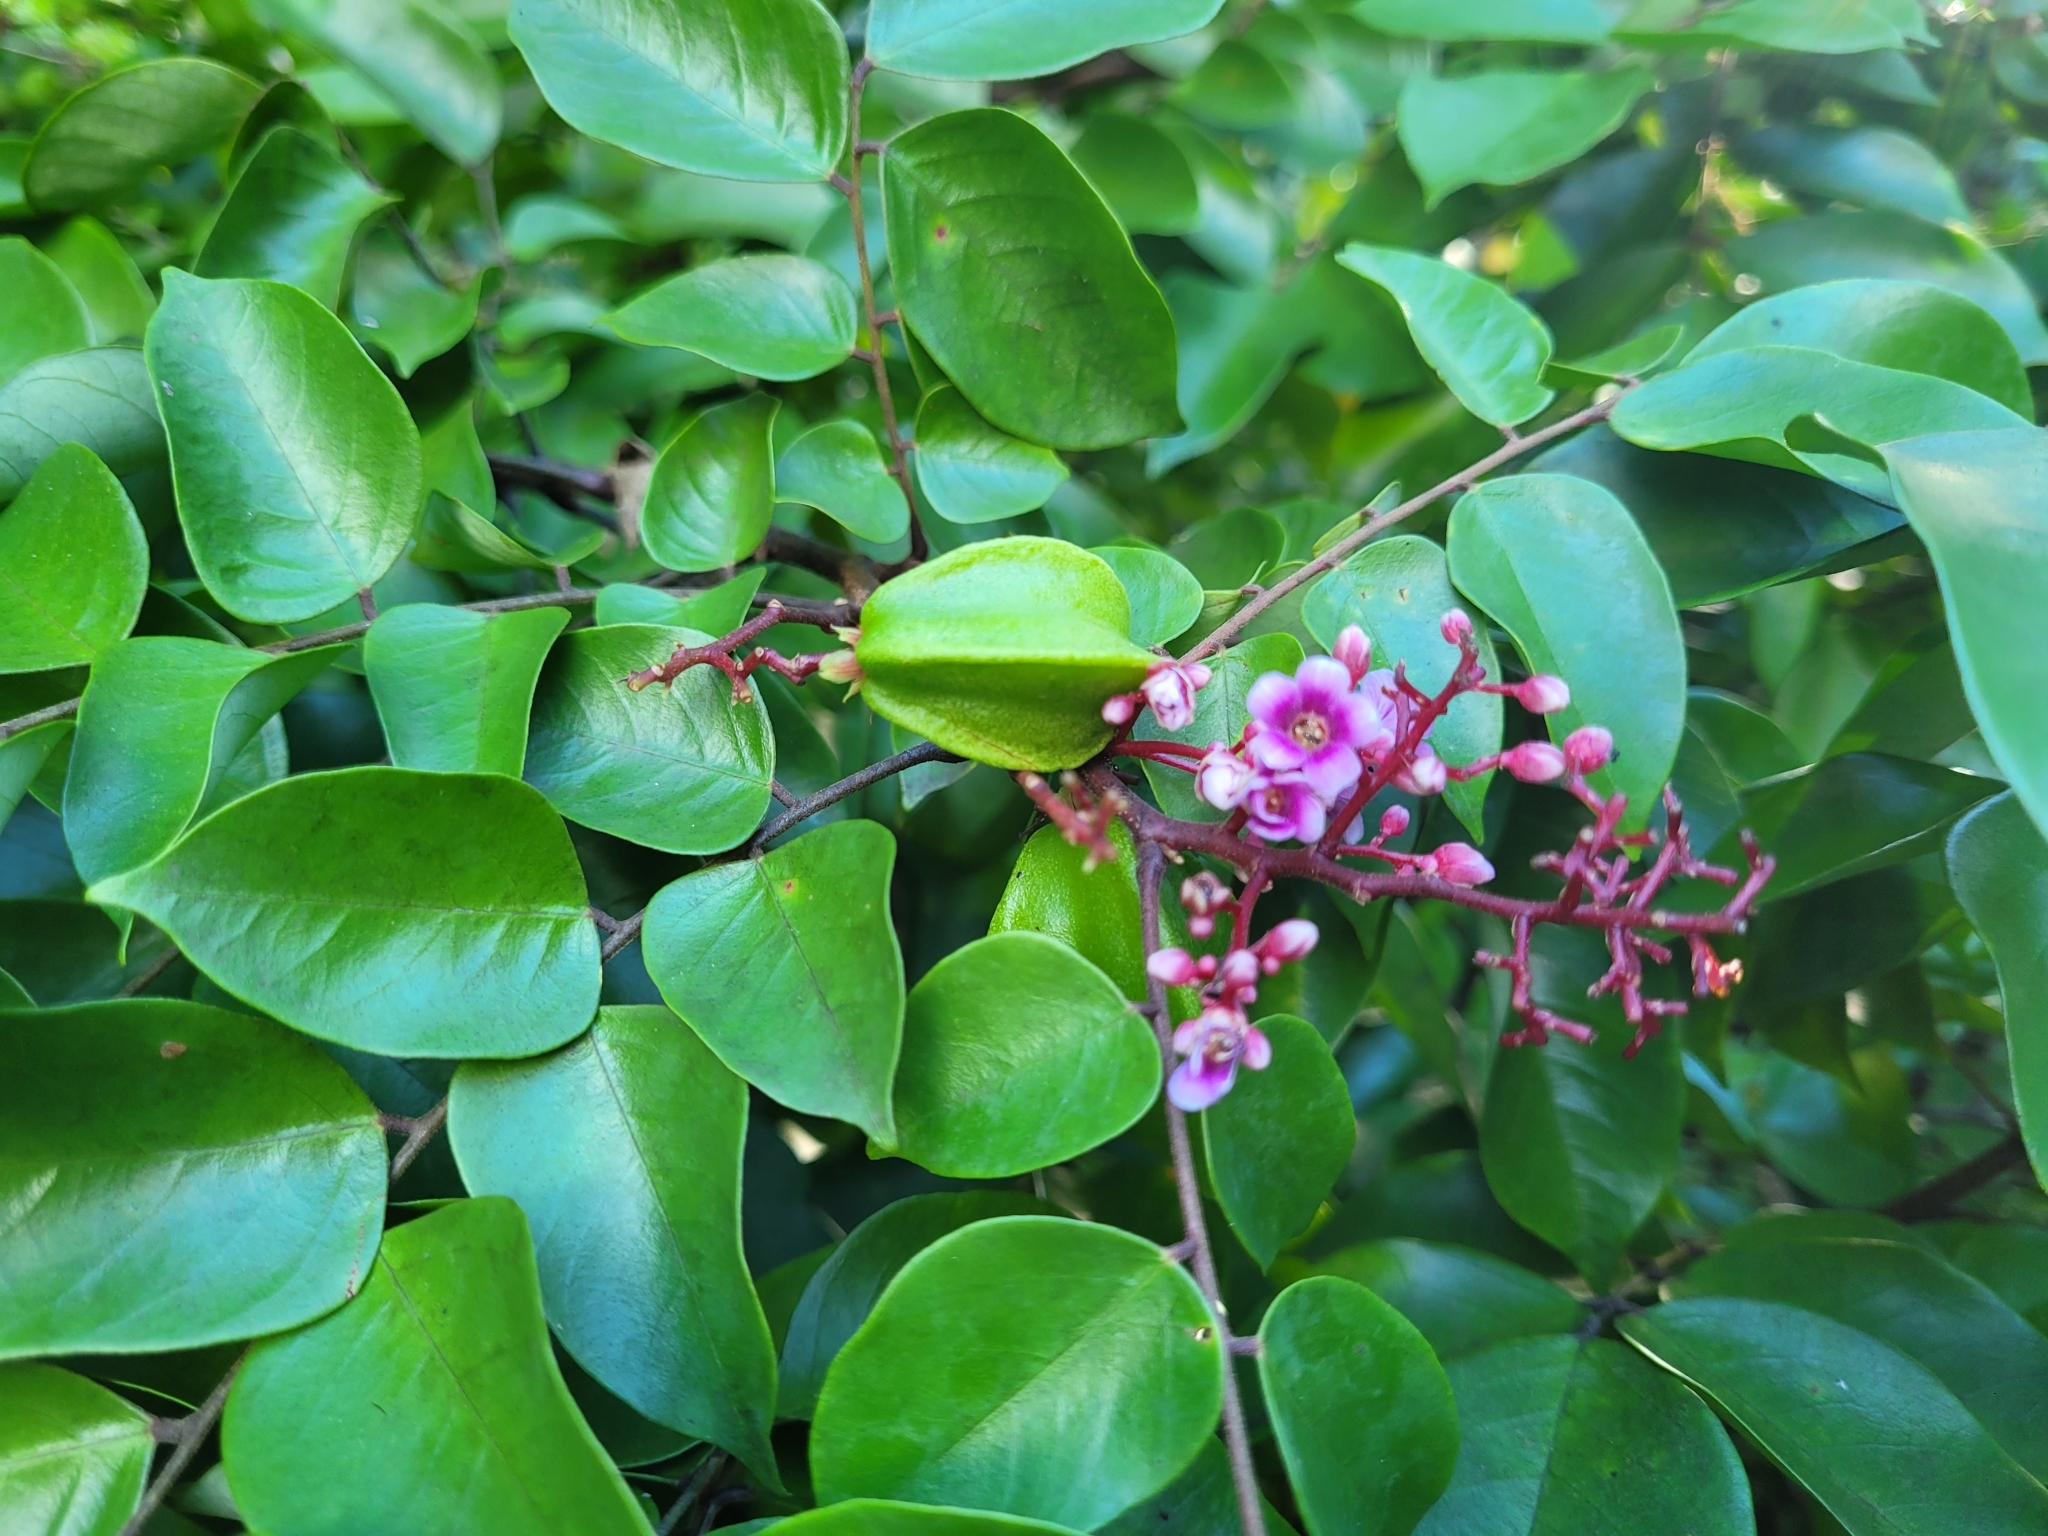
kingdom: Plantae
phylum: Tracheophyta
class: Magnoliopsida
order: Oxalidales
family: Oxalidaceae
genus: Averrhoa
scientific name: Averrhoa carambola
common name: Blimbing
